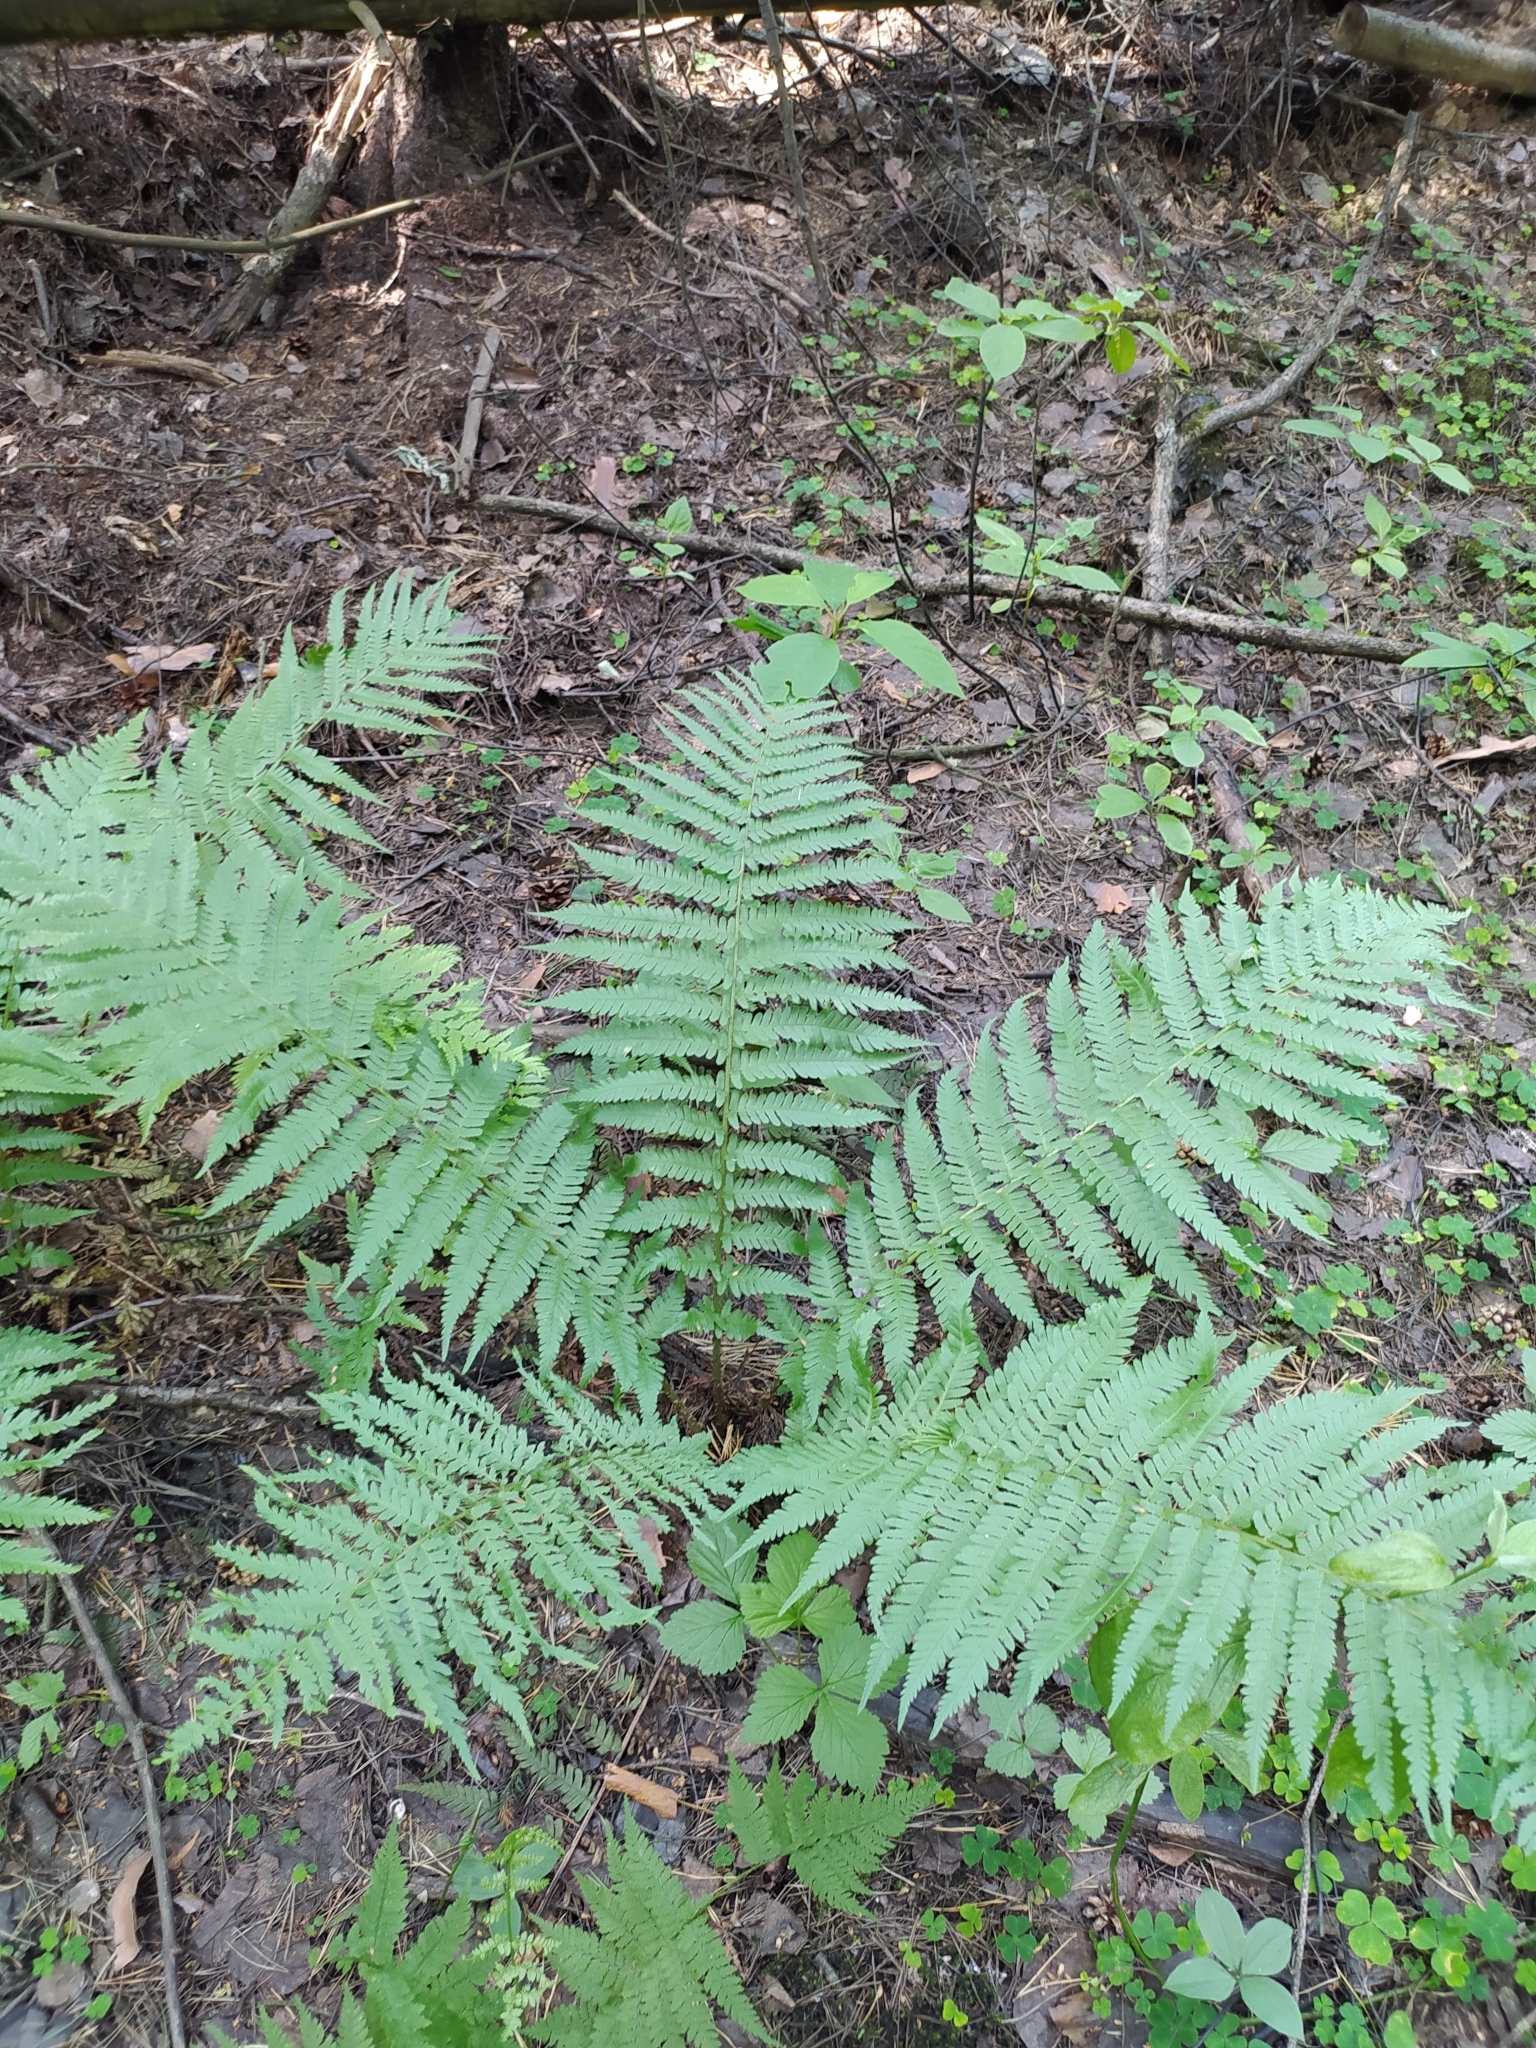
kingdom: Plantae
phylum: Tracheophyta
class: Polypodiopsida
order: Polypodiales
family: Dryopteridaceae
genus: Dryopteris
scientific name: Dryopteris filix-mas
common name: Male fern
